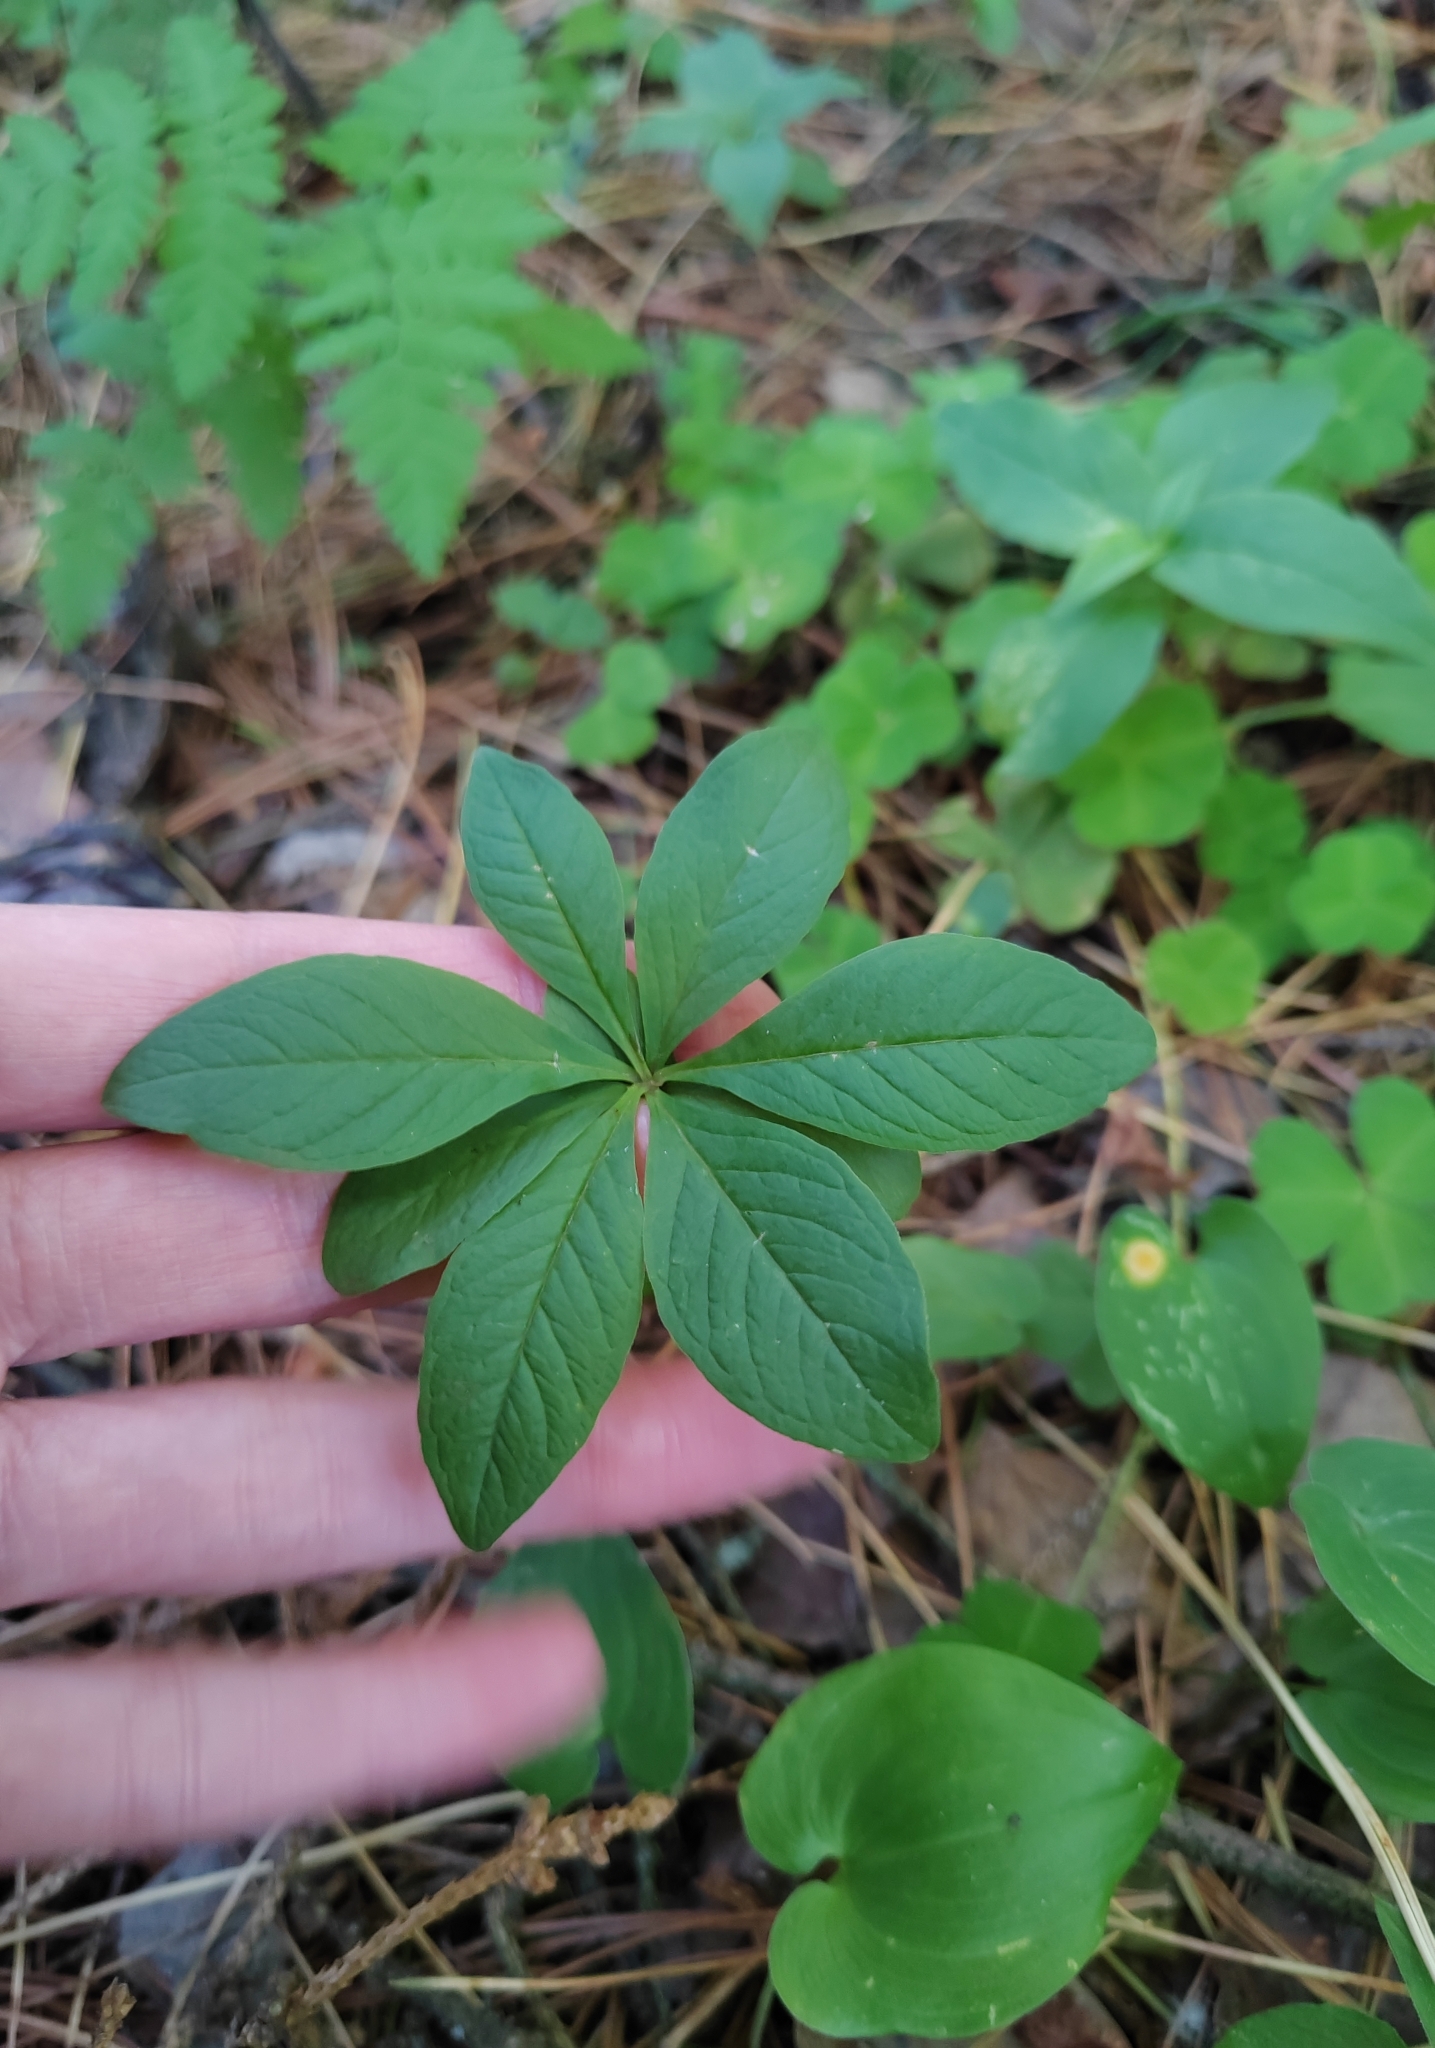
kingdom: Plantae
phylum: Tracheophyta
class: Magnoliopsida
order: Ericales
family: Primulaceae
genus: Lysimachia
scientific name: Lysimachia europaea
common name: Arctic starflower
